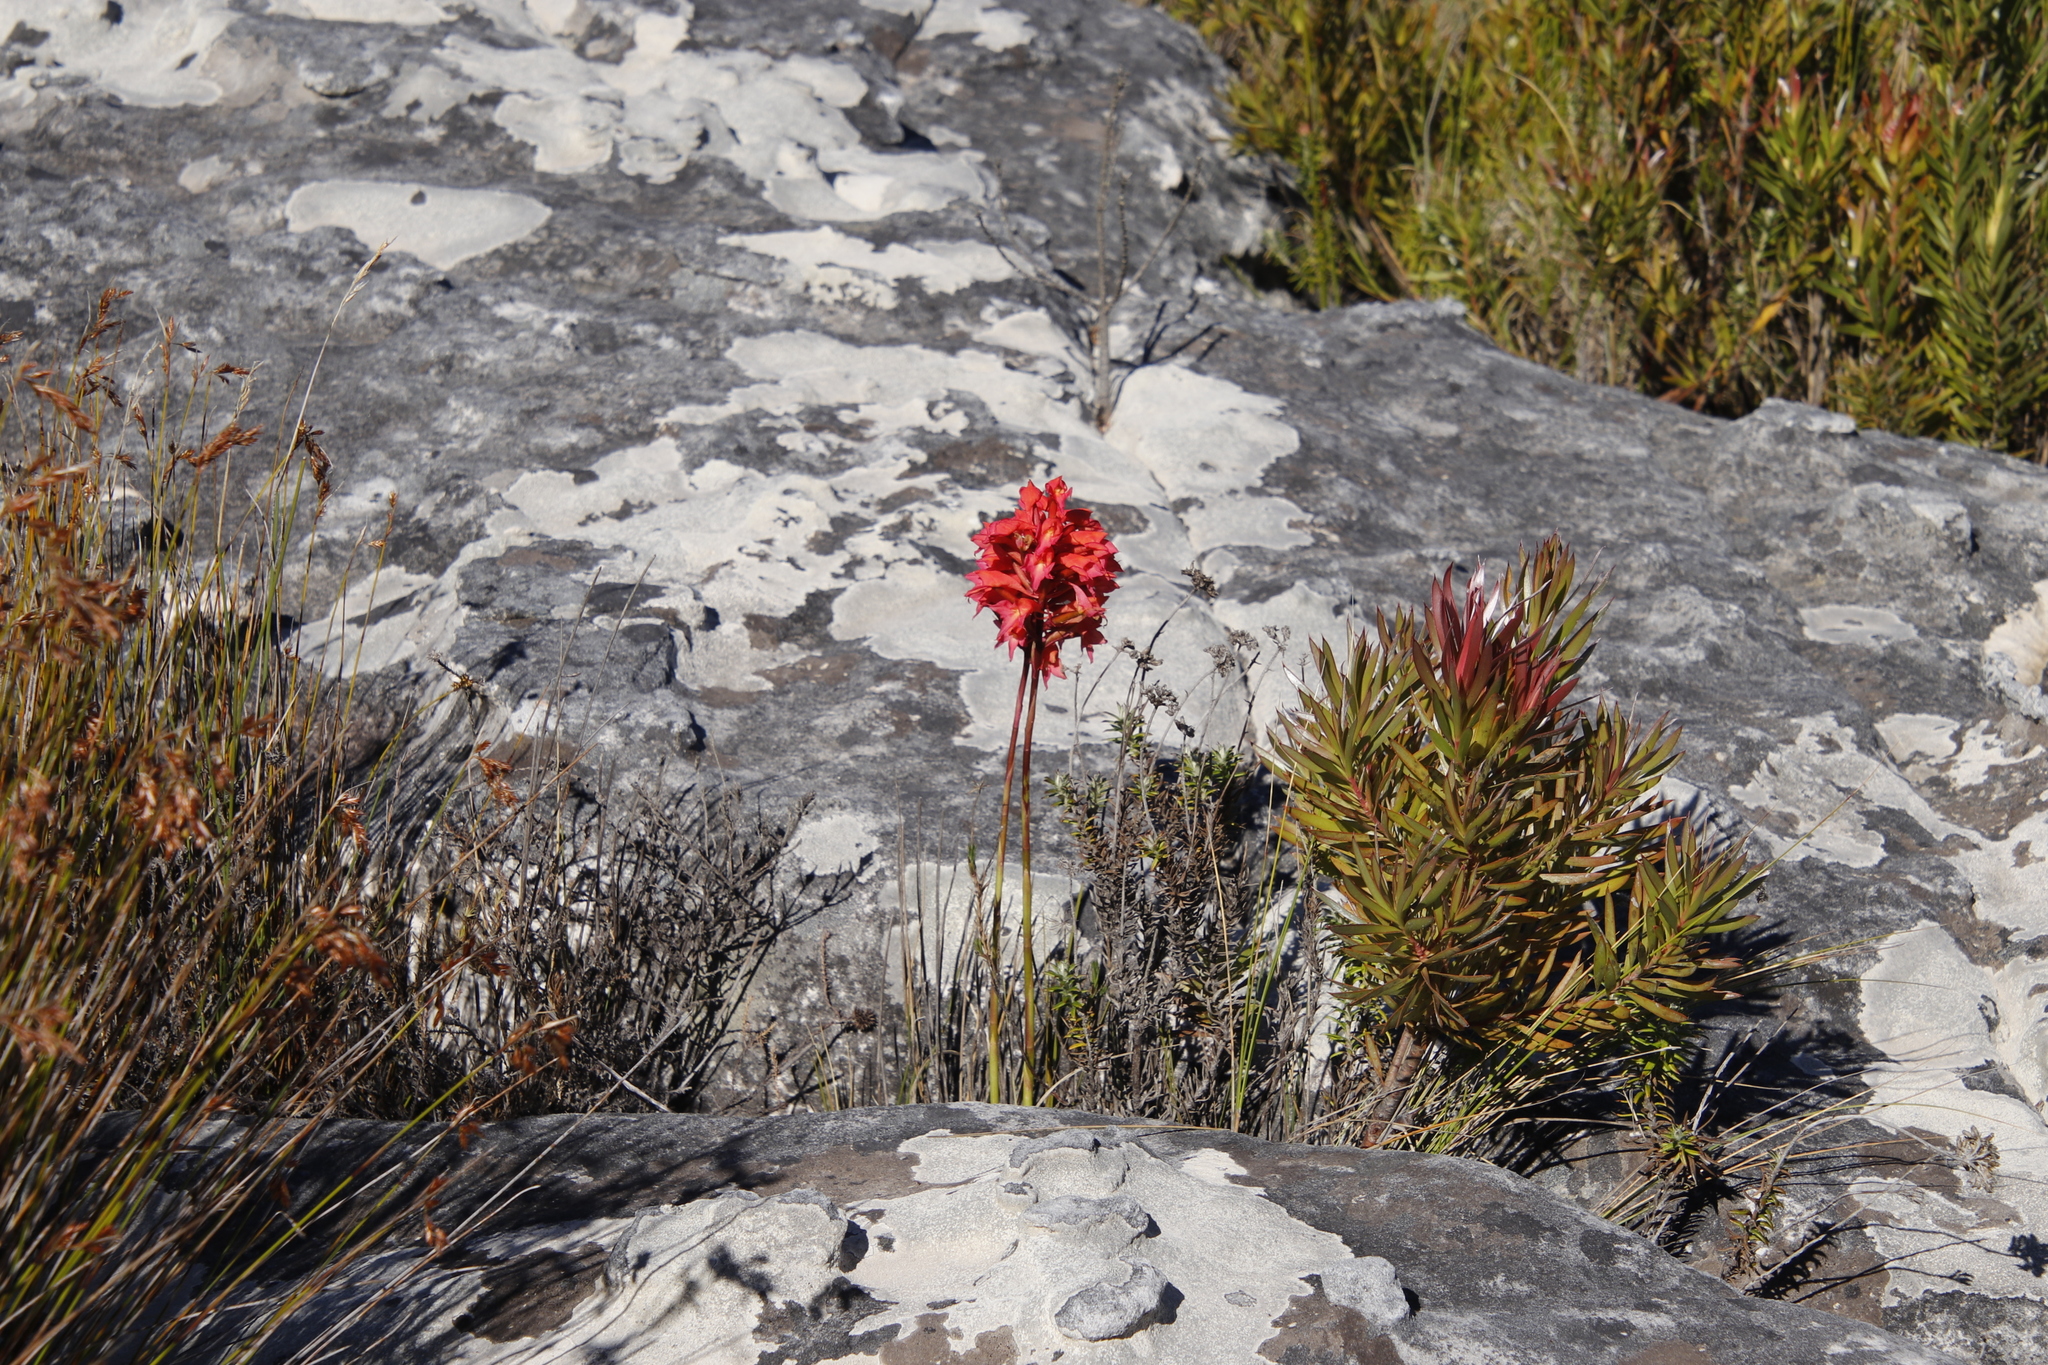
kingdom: Plantae
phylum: Tracheophyta
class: Liliopsida
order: Asparagales
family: Orchidaceae
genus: Disa
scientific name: Disa ferruginea
